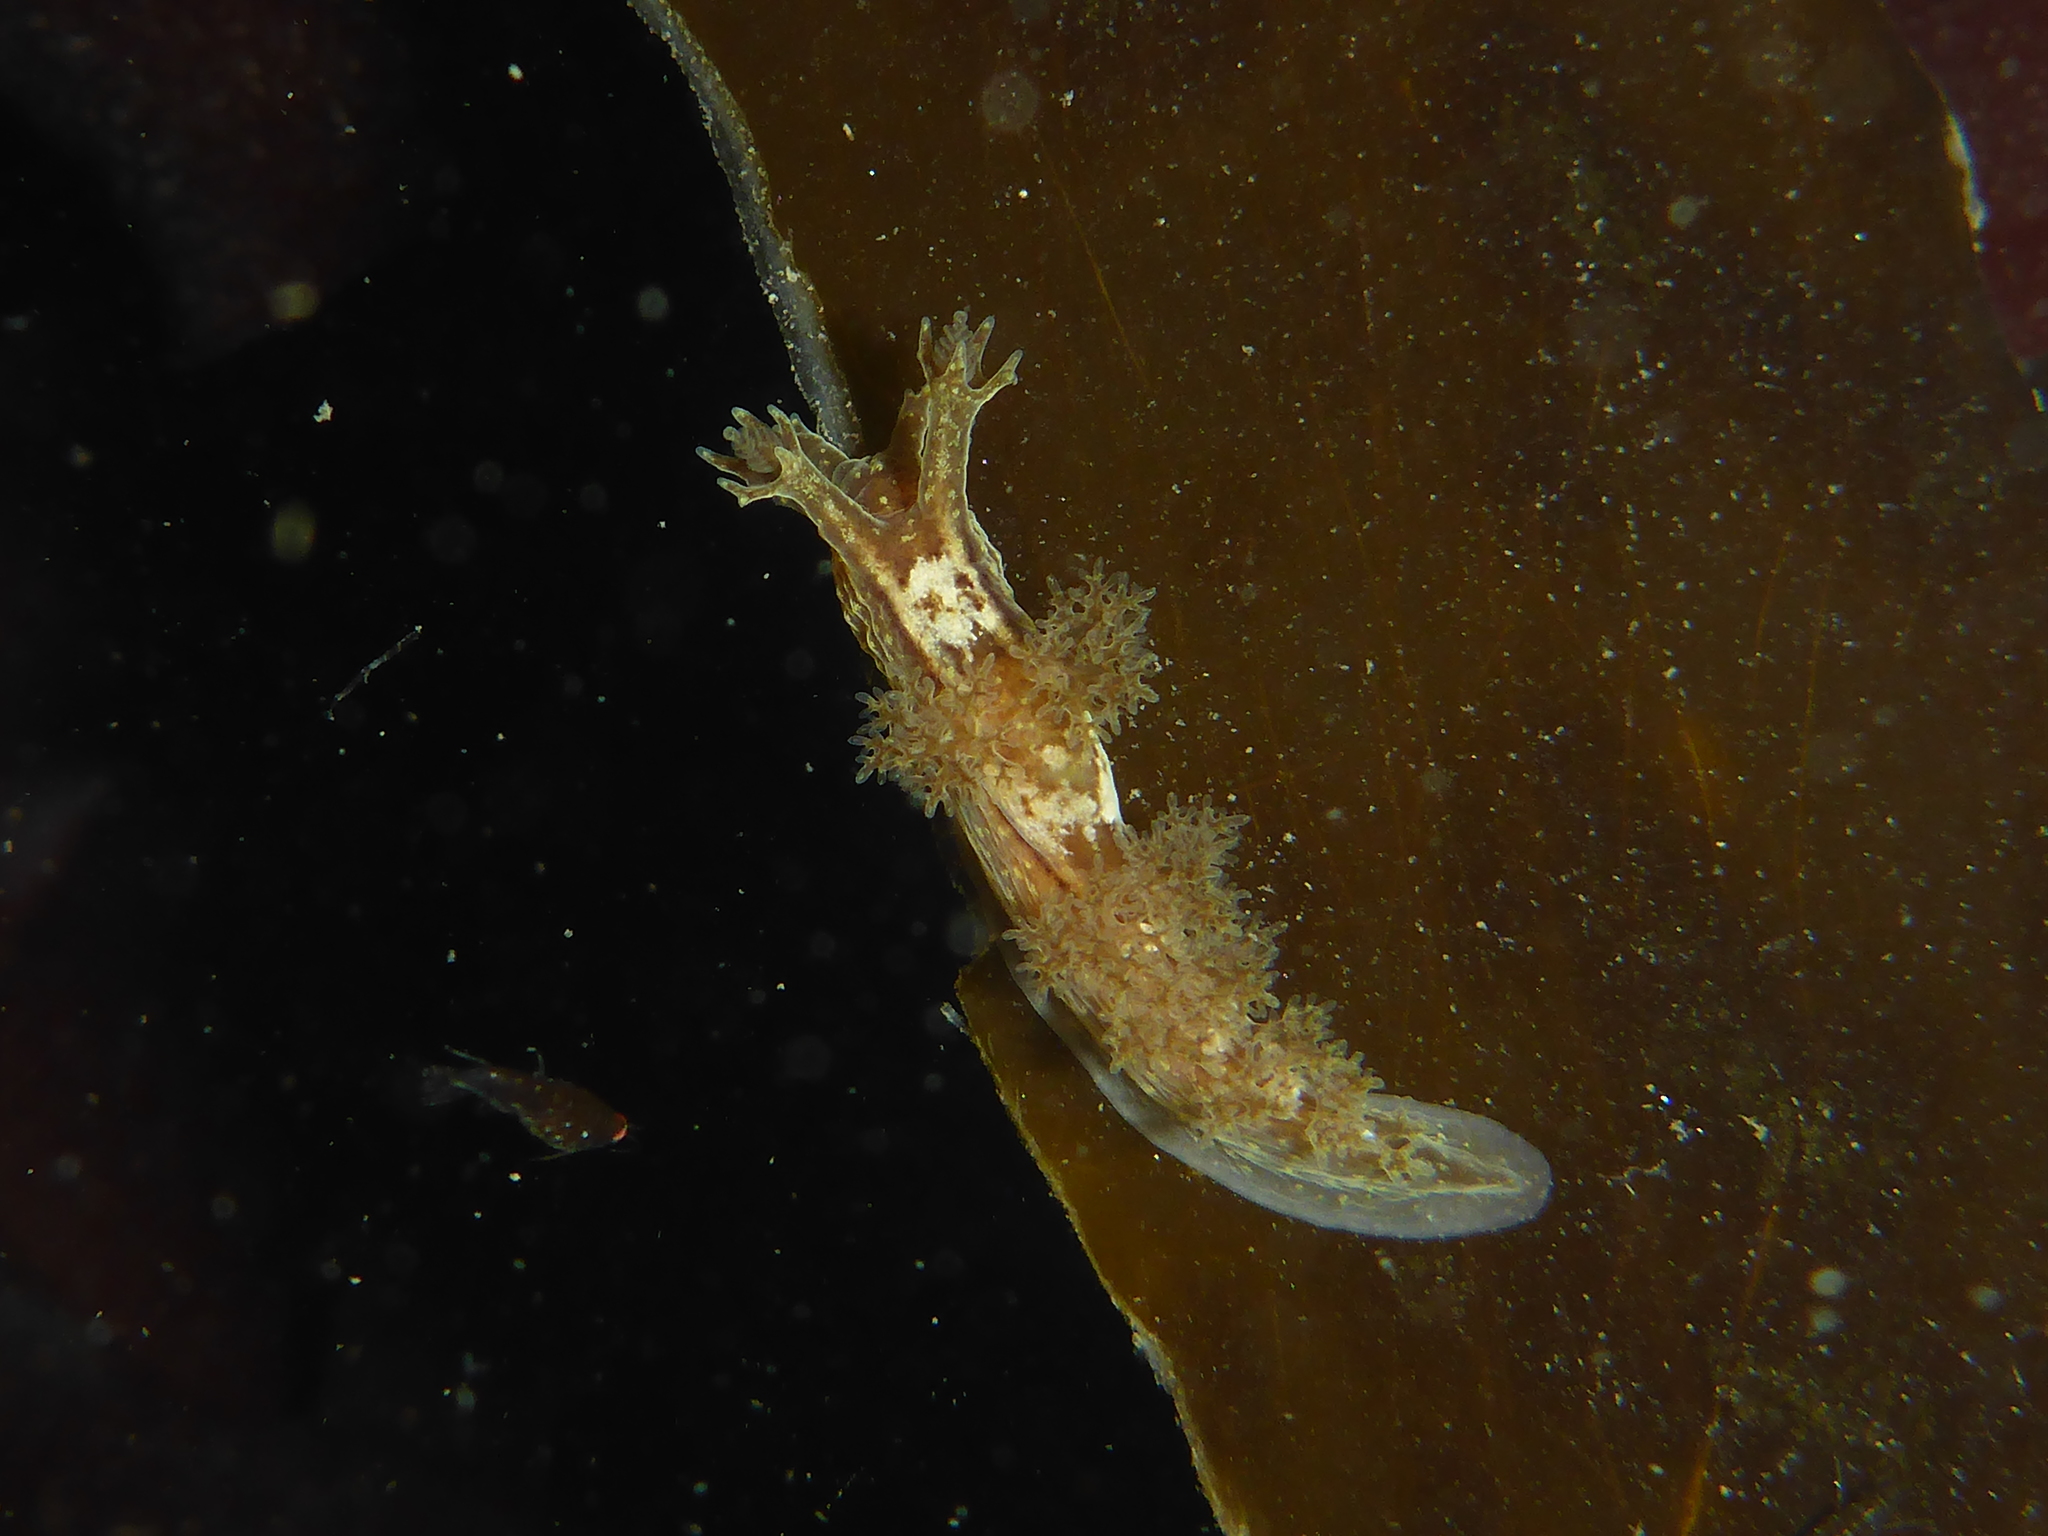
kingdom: Animalia
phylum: Mollusca
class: Gastropoda
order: Nudibranchia
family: Dendronotidae
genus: Dendronotus
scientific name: Dendronotus subramosus
